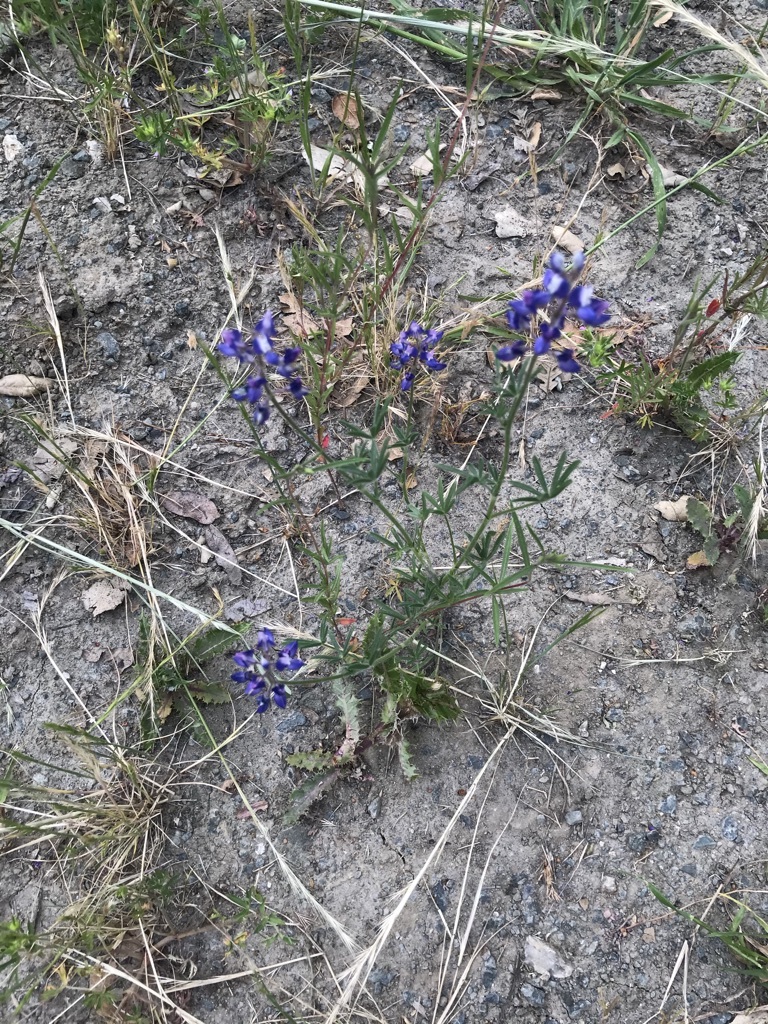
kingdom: Plantae
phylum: Tracheophyta
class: Magnoliopsida
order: Fabales
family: Fabaceae
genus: Lupinus
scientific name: Lupinus bicolor
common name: Miniature lupine
